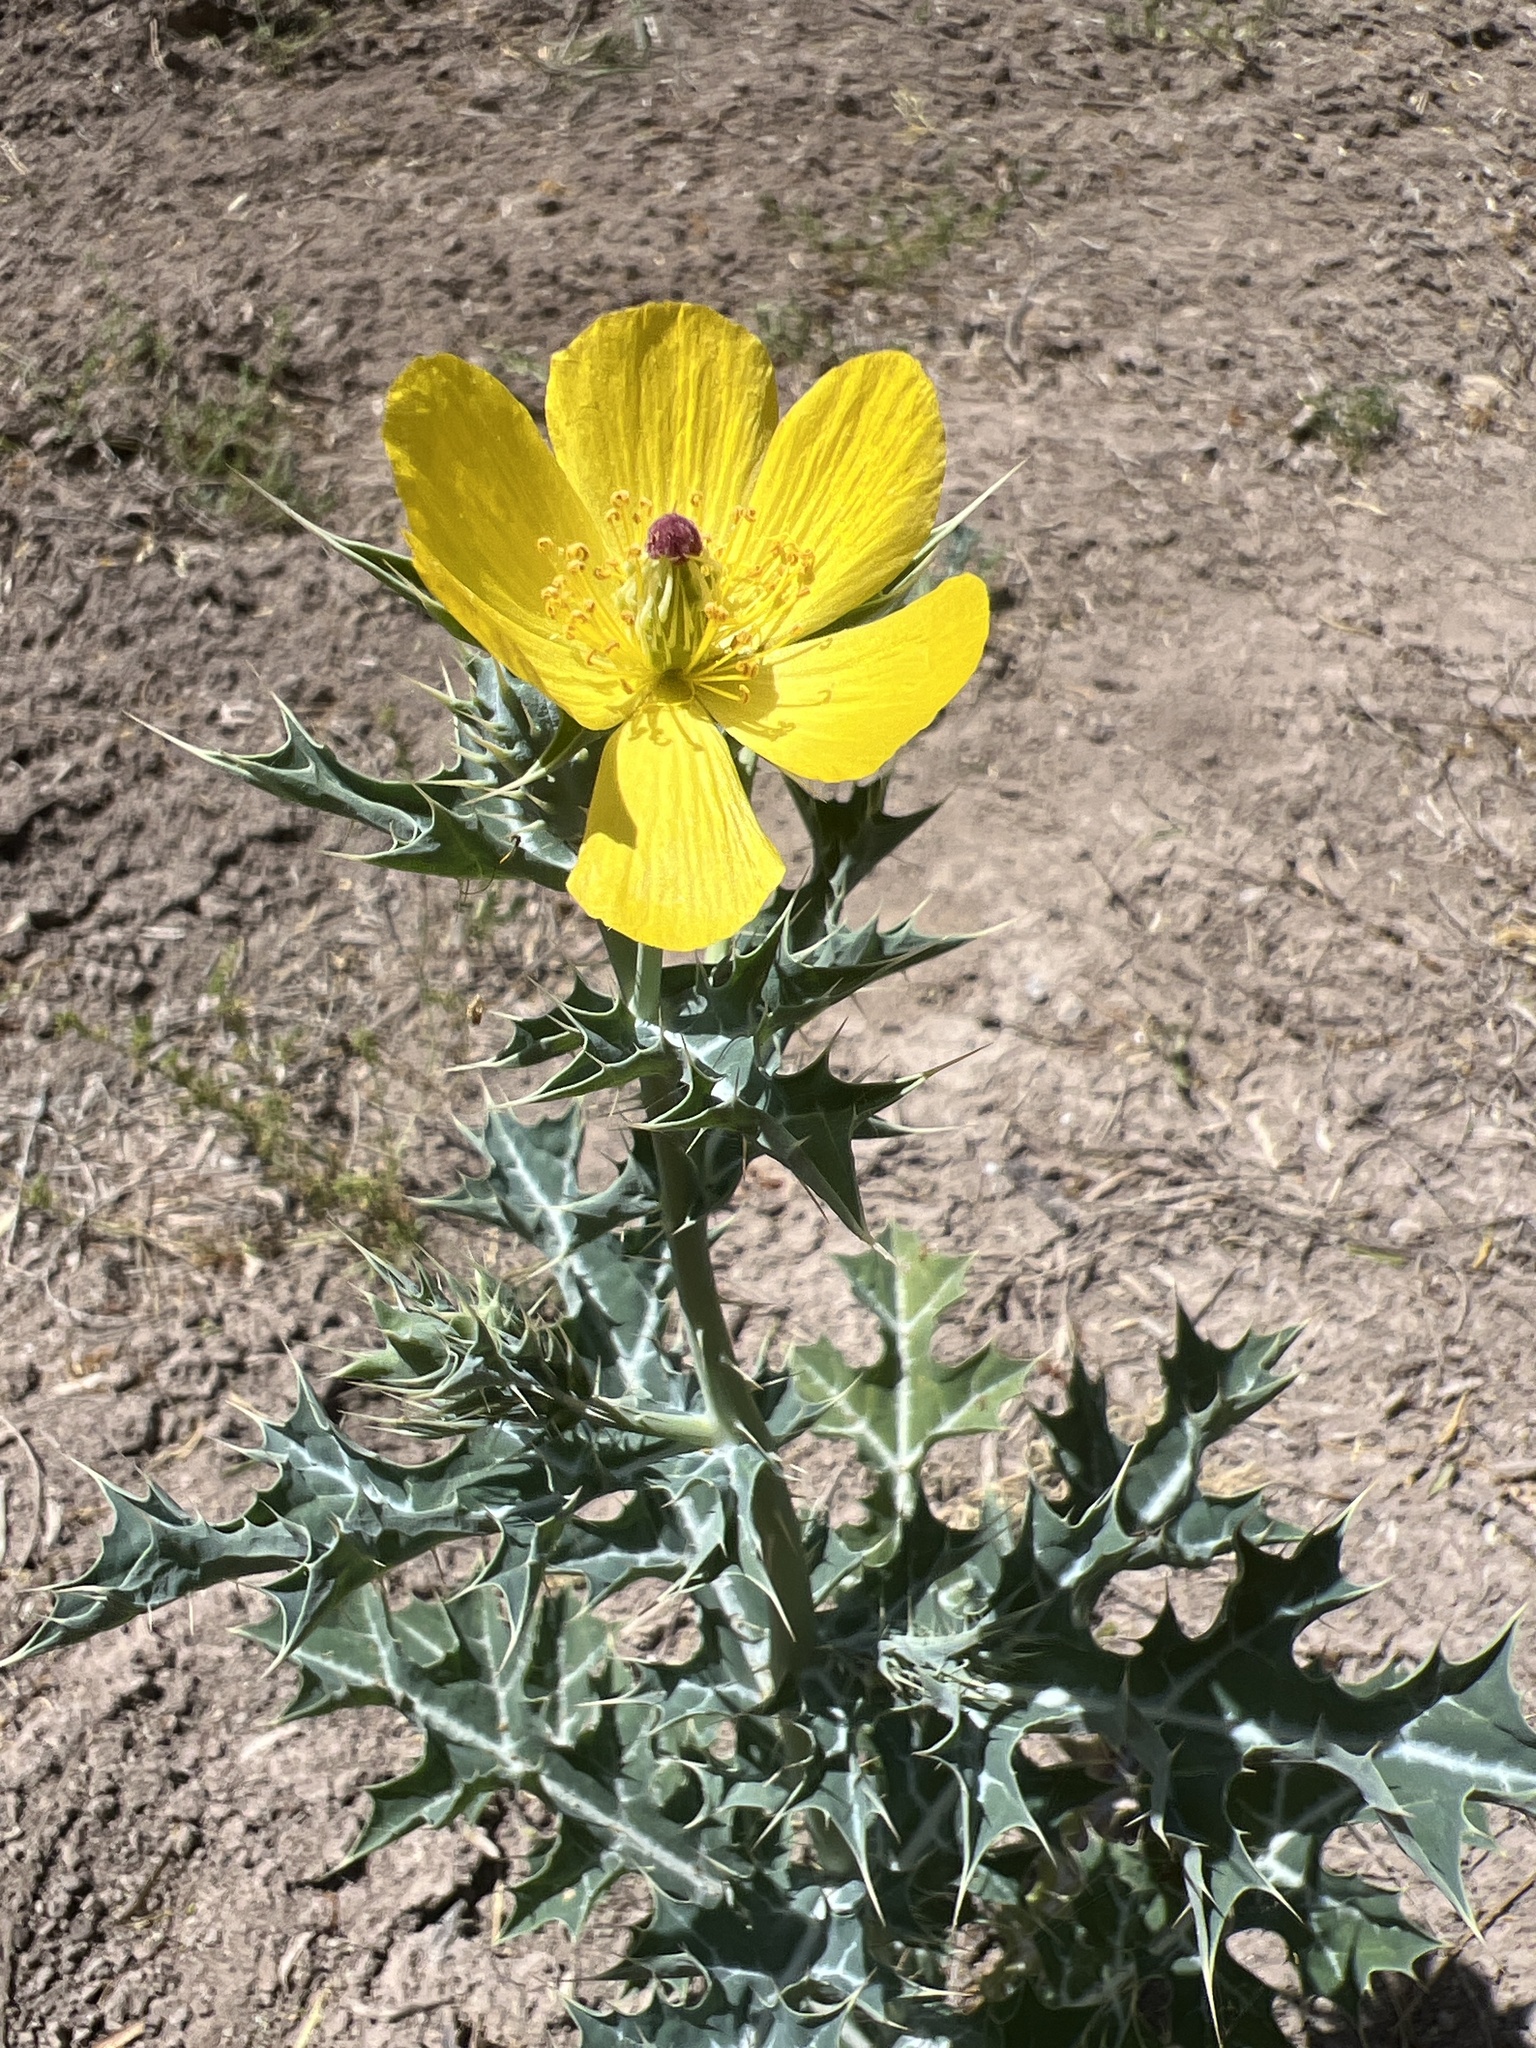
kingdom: Plantae
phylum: Tracheophyta
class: Magnoliopsida
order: Ranunculales
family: Papaveraceae
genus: Argemone
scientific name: Argemone mexicana
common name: Mexican poppy
